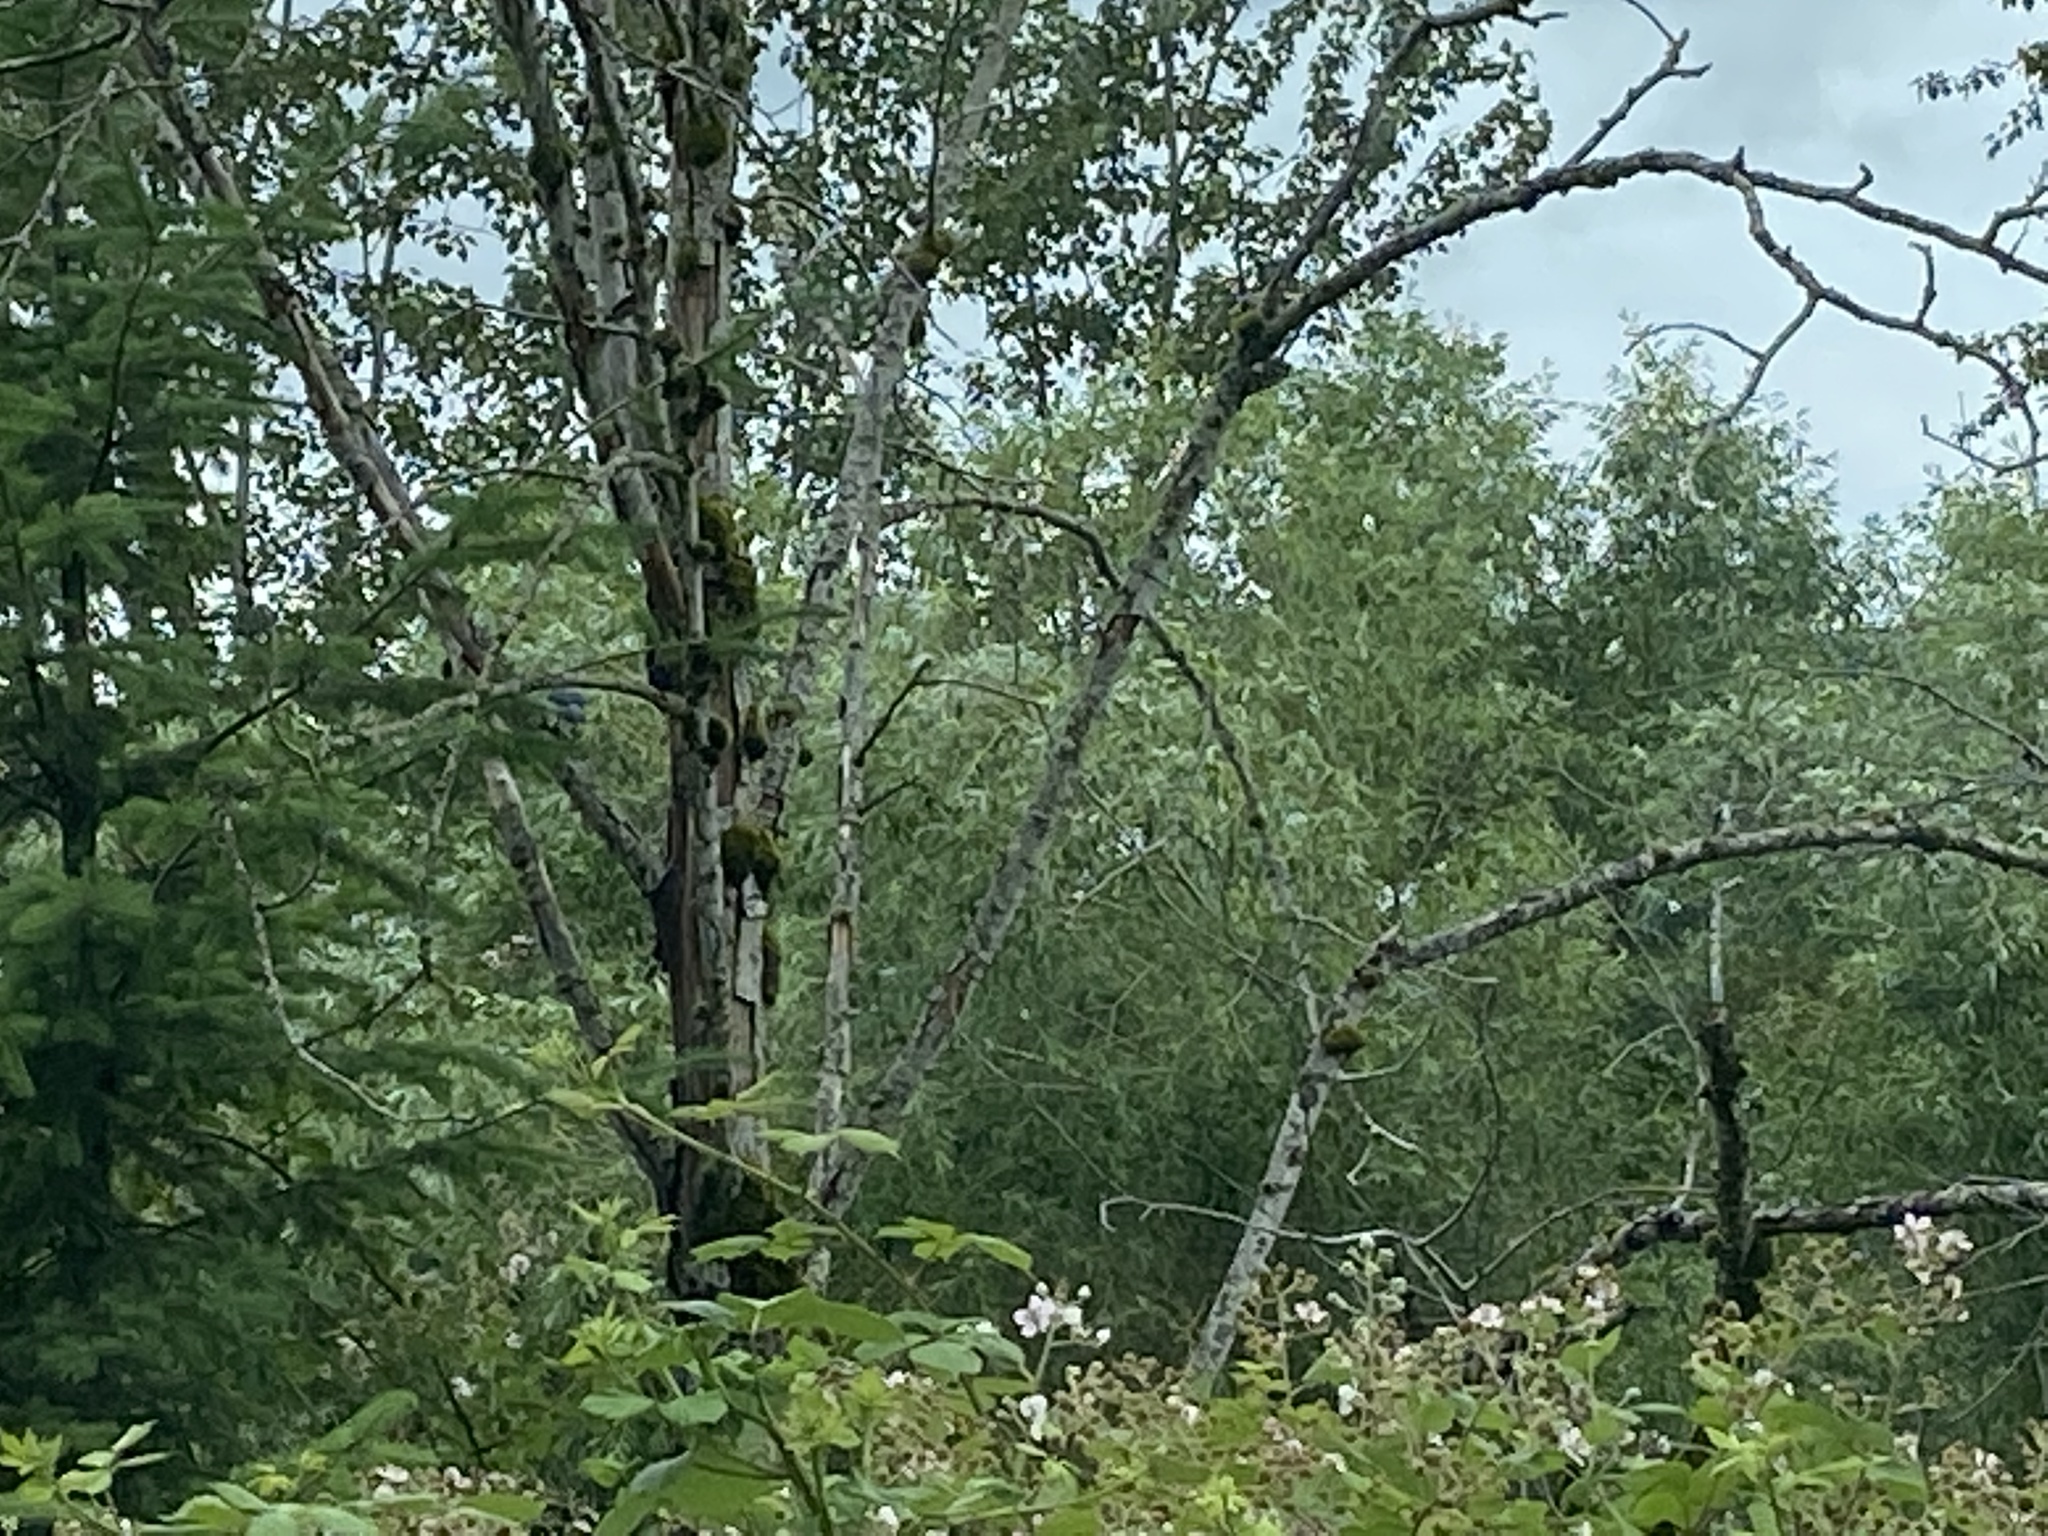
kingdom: Animalia
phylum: Chordata
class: Aves
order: Passeriformes
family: Corvidae
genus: Aphelocoma
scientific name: Aphelocoma californica
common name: California scrub-jay
